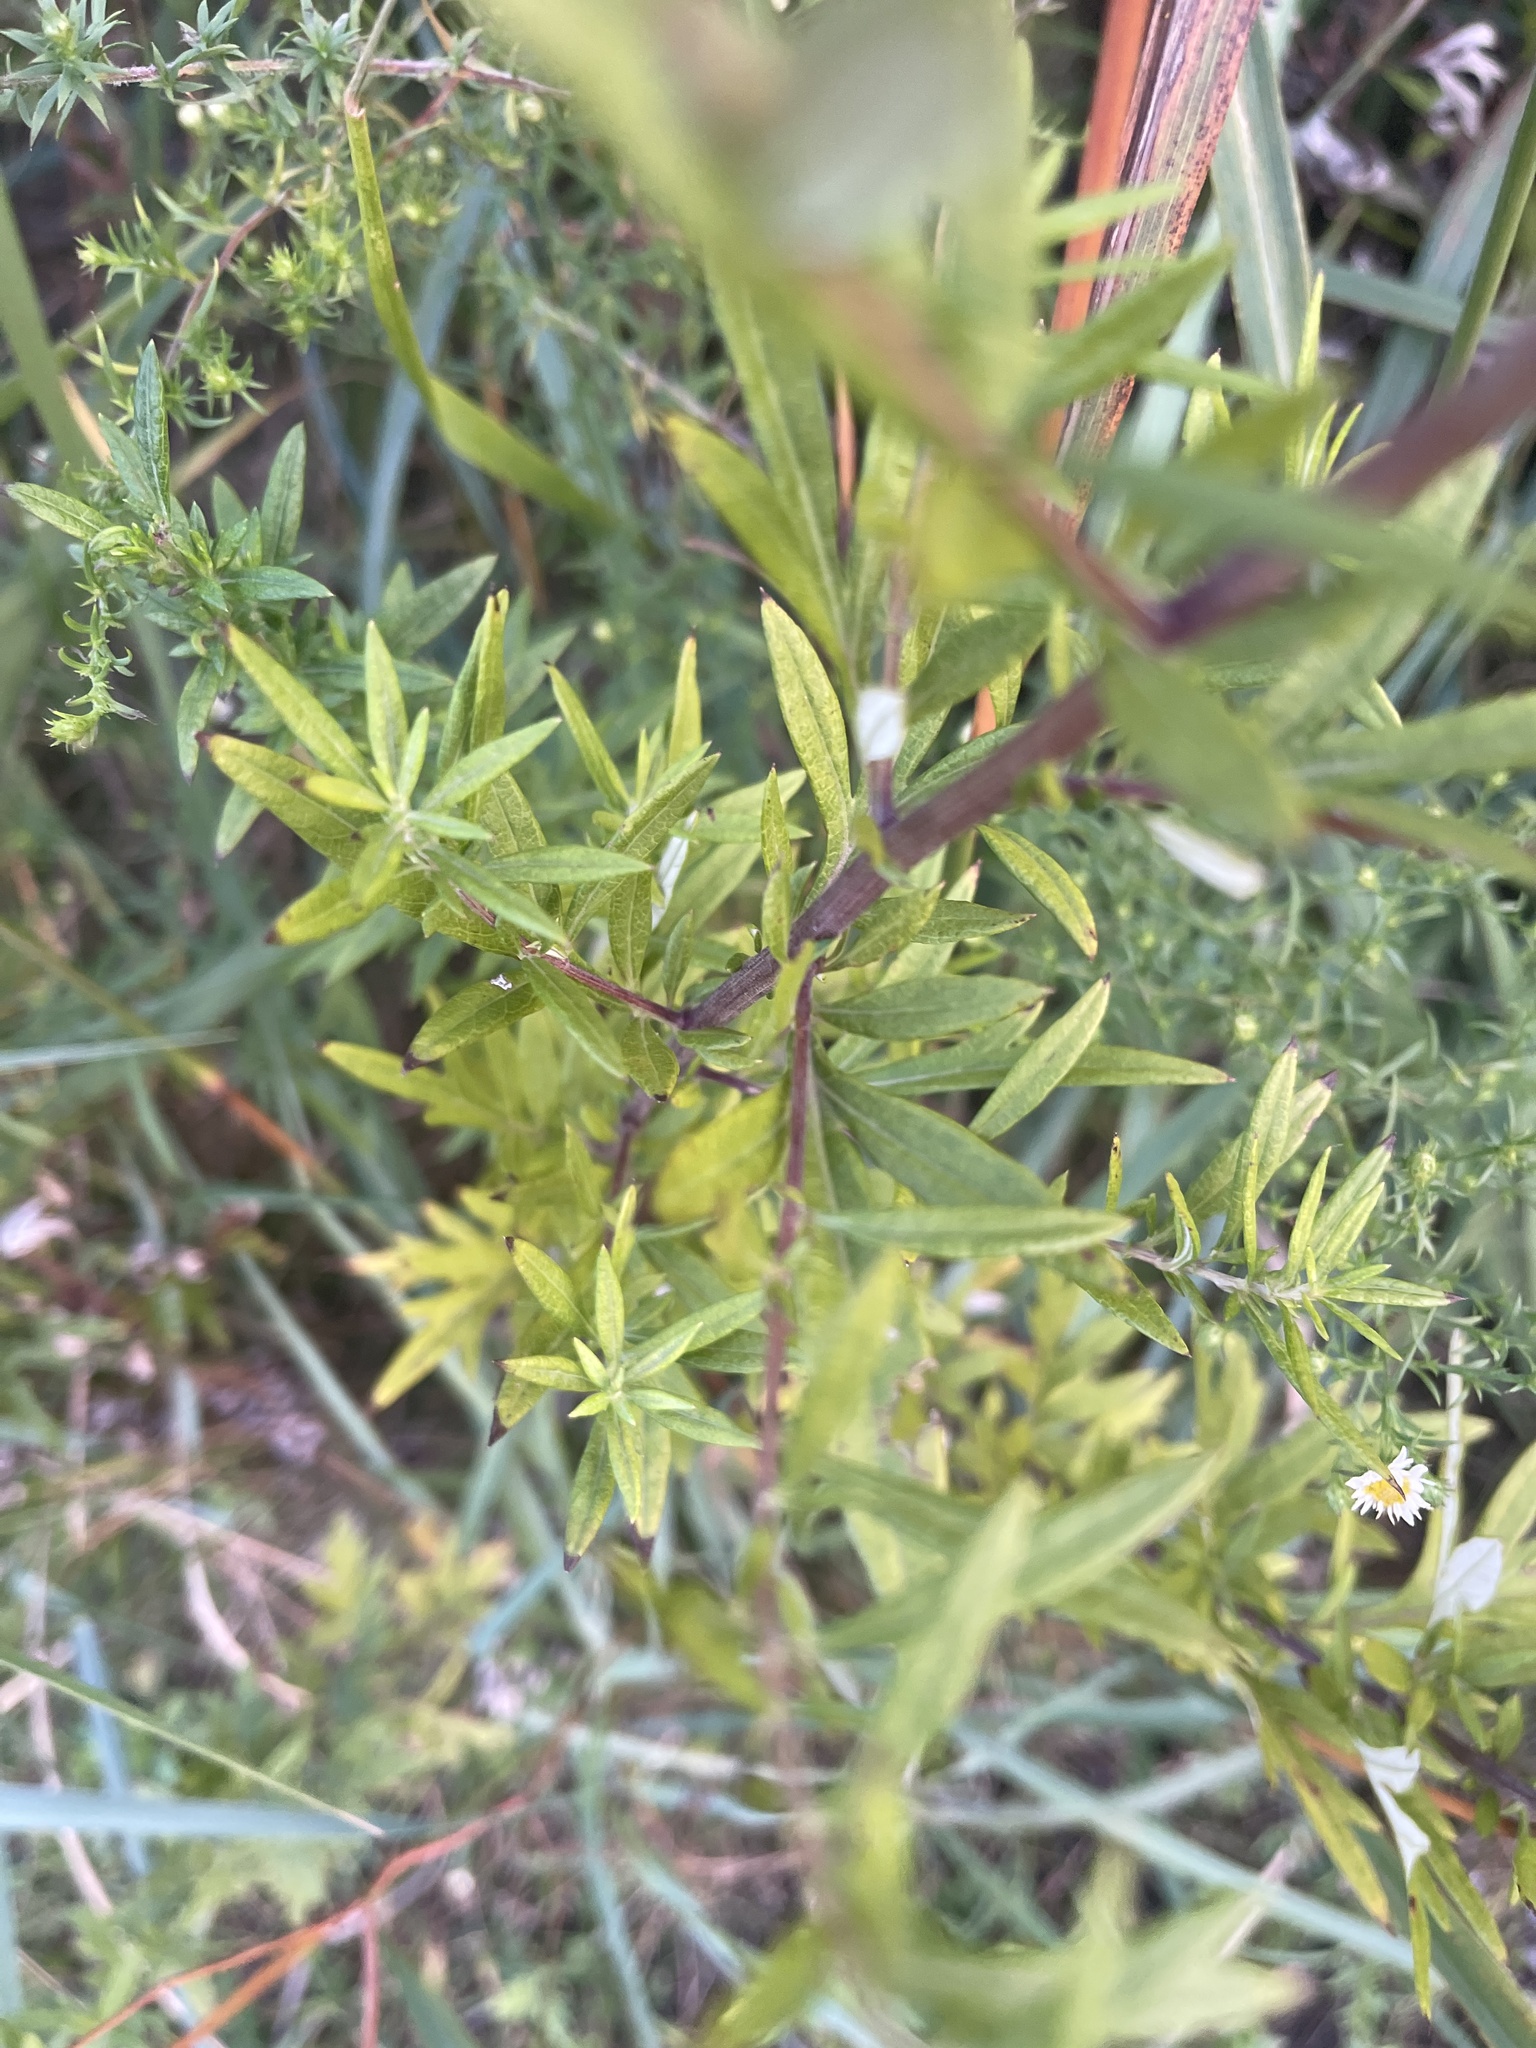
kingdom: Plantae
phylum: Tracheophyta
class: Magnoliopsida
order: Asterales
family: Asteraceae
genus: Artemisia
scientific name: Artemisia vulgaris
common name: Mugwort
